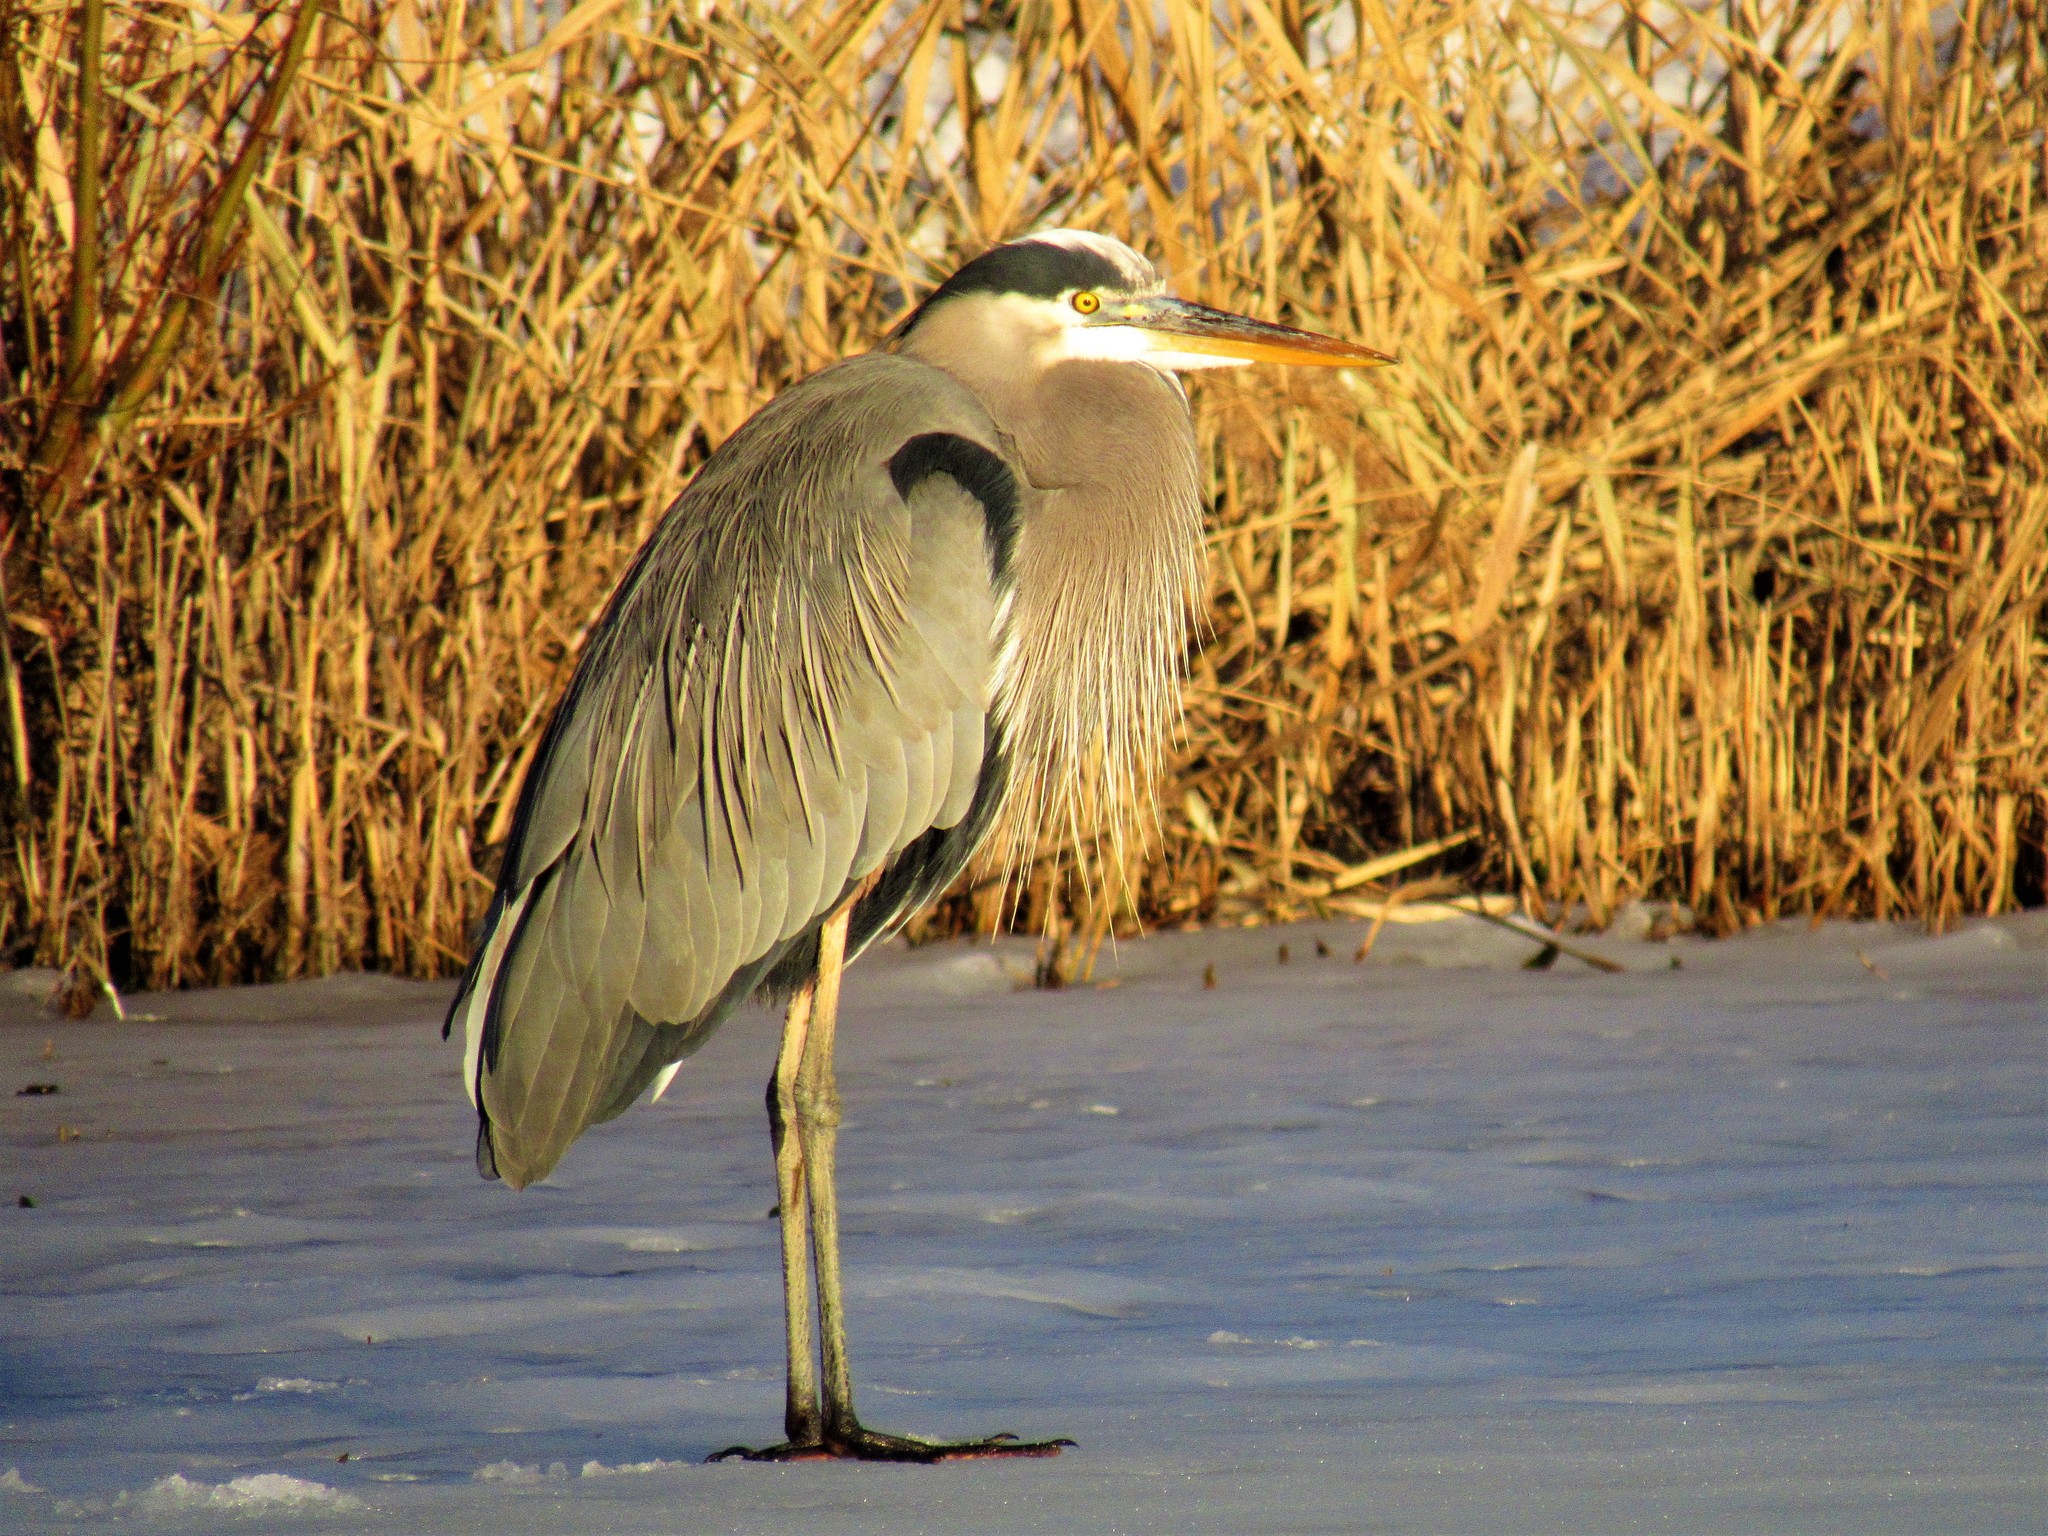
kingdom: Animalia
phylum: Chordata
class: Aves
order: Pelecaniformes
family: Ardeidae
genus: Ardea
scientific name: Ardea herodias
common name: Great blue heron
